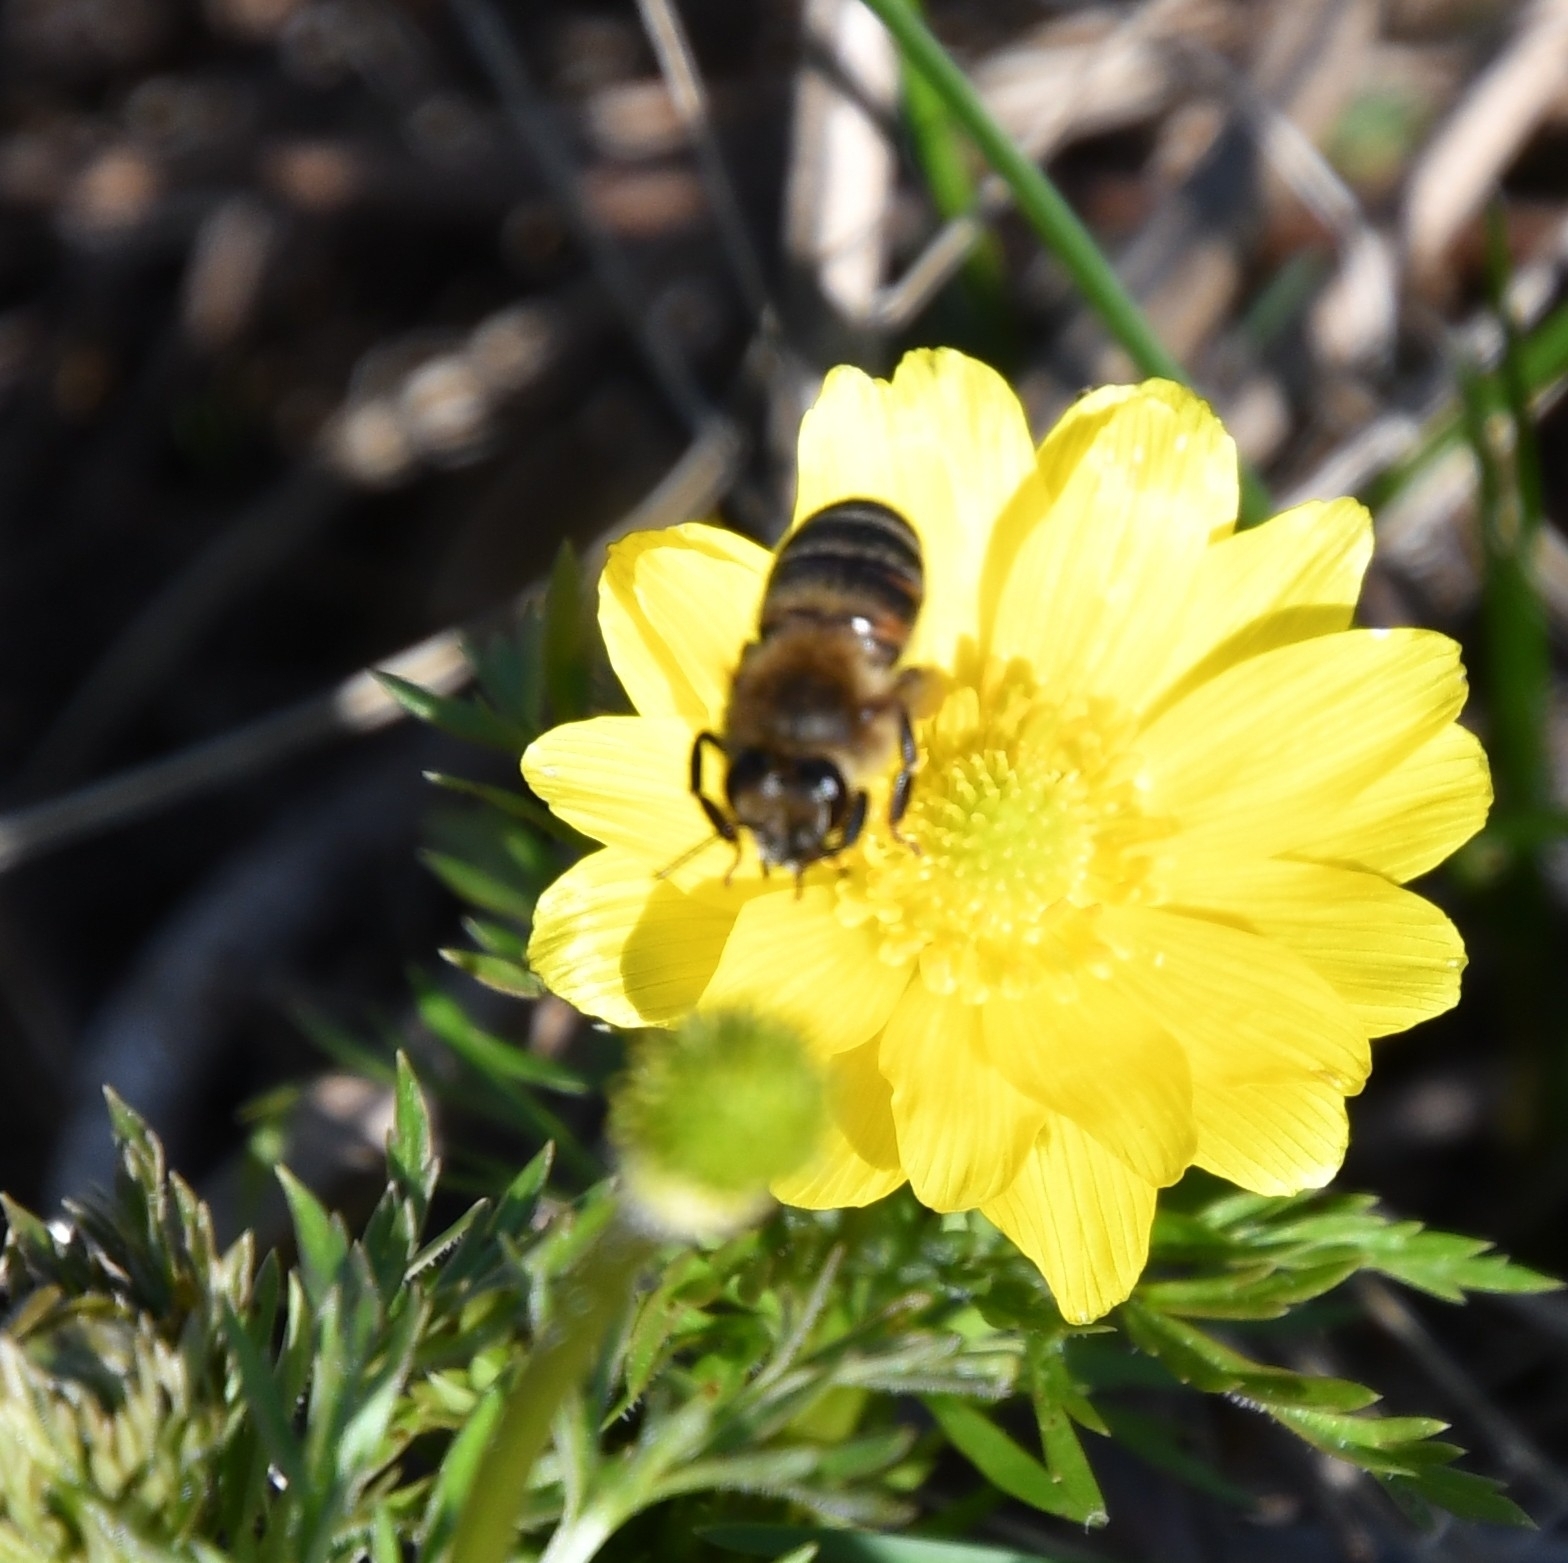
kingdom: Animalia
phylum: Arthropoda
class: Insecta
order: Hymenoptera
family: Apidae
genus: Apis
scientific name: Apis mellifera
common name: Honey bee
